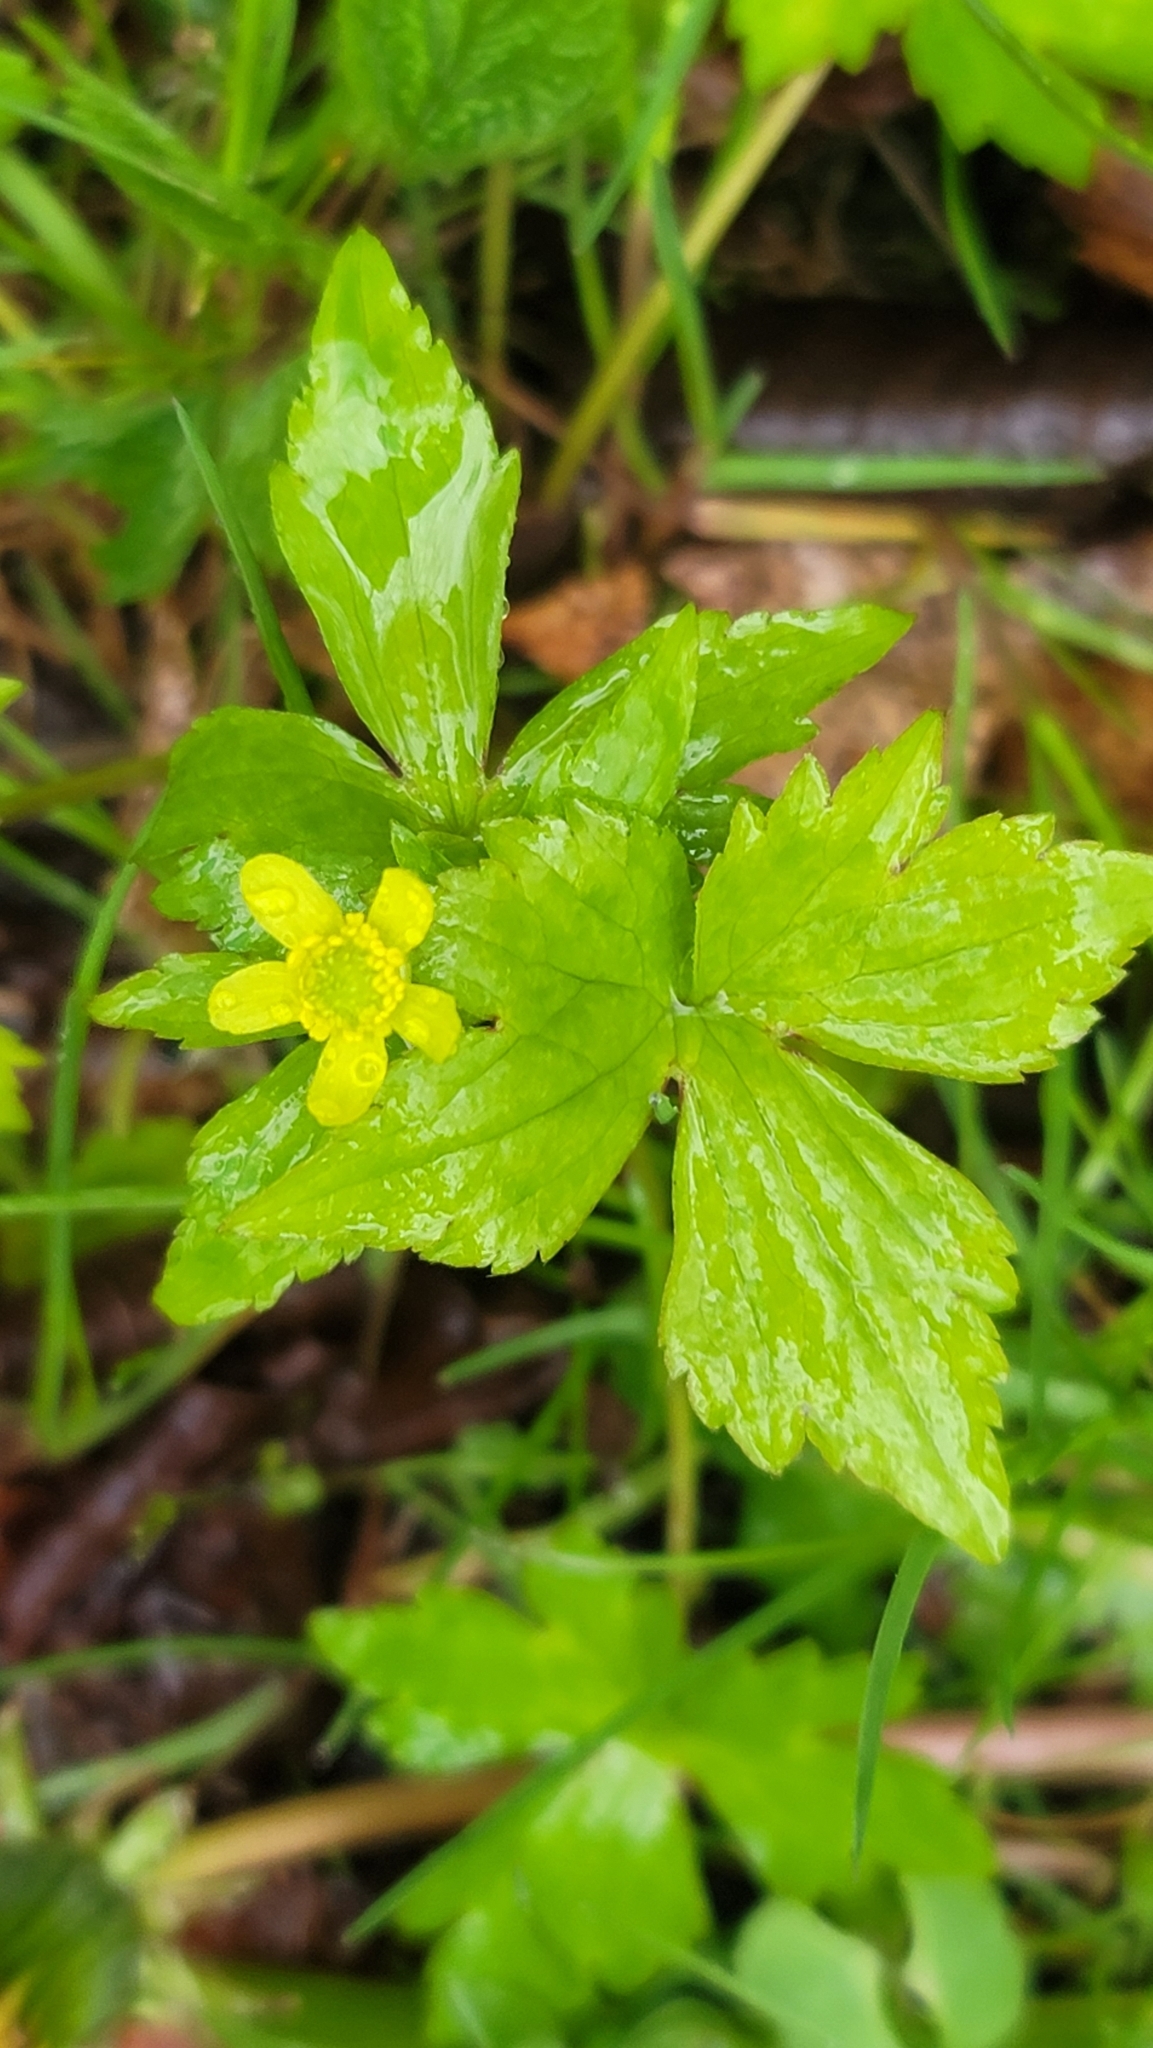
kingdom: Plantae
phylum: Tracheophyta
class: Magnoliopsida
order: Ranunculales
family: Ranunculaceae
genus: Ranunculus
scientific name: Ranunculus recurvatus
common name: Blisterwort
